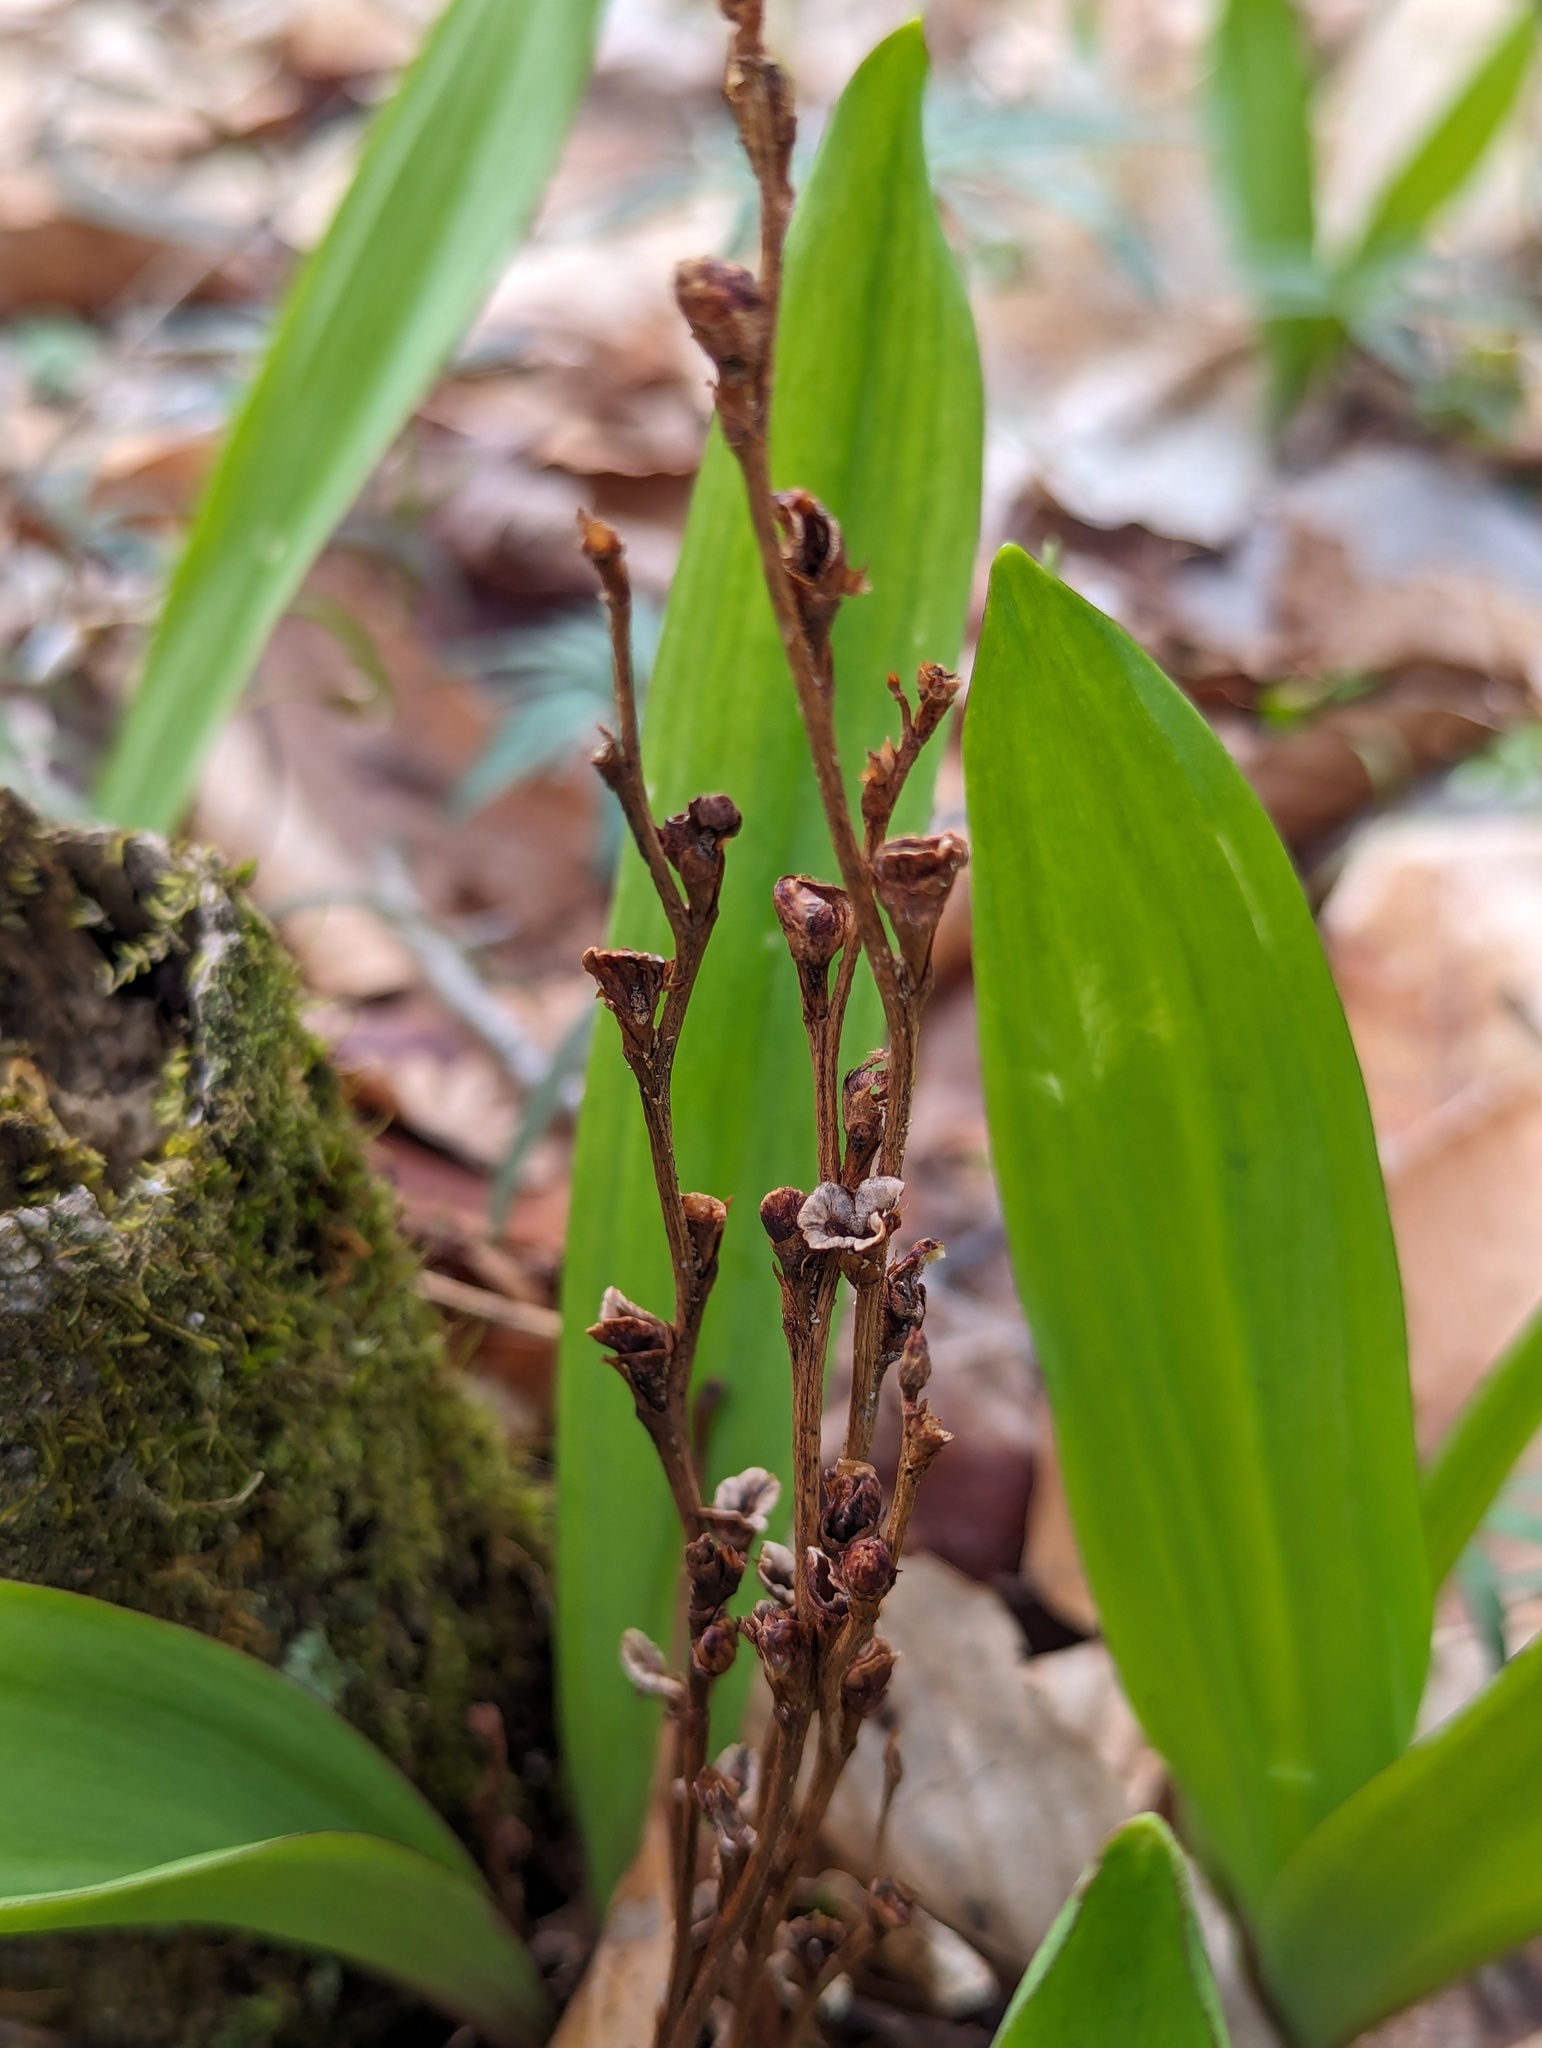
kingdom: Plantae
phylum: Tracheophyta
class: Magnoliopsida
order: Lamiales
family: Orobanchaceae
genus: Epifagus
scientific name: Epifagus virginiana
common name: Beechdrops
